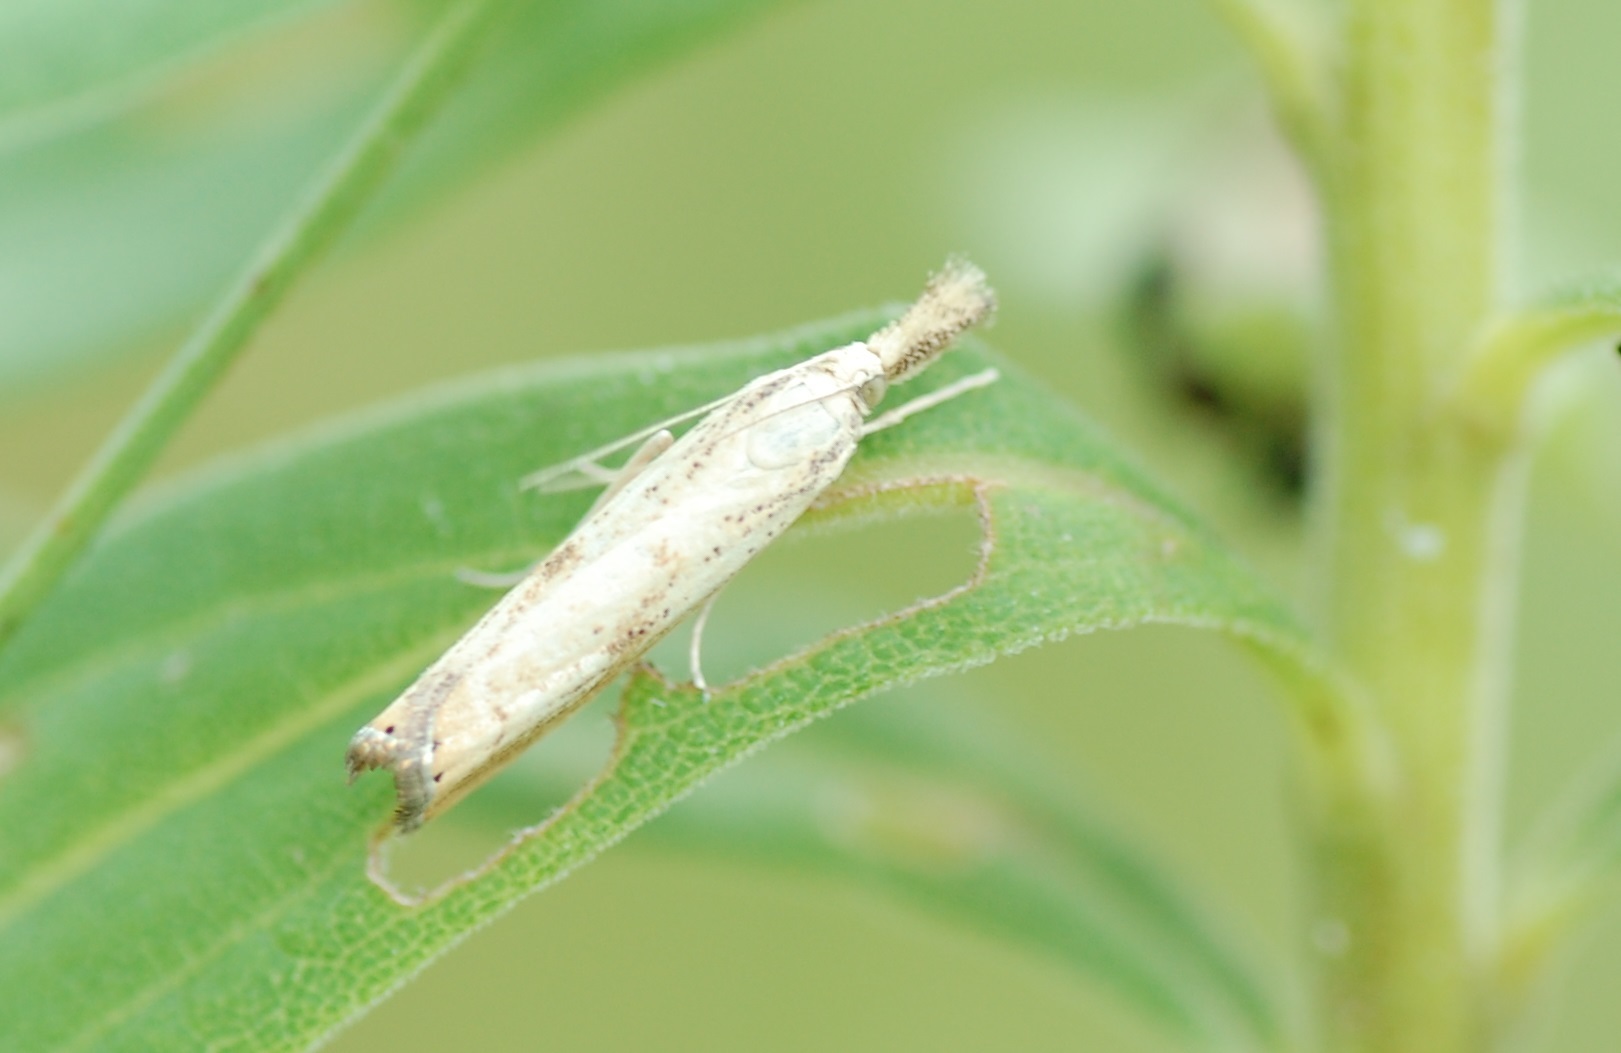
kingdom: Animalia
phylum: Arthropoda
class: Insecta
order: Lepidoptera
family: Crambidae
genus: Agriphila
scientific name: Agriphila ruricolellus
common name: Lesser vagabond sod webworm
